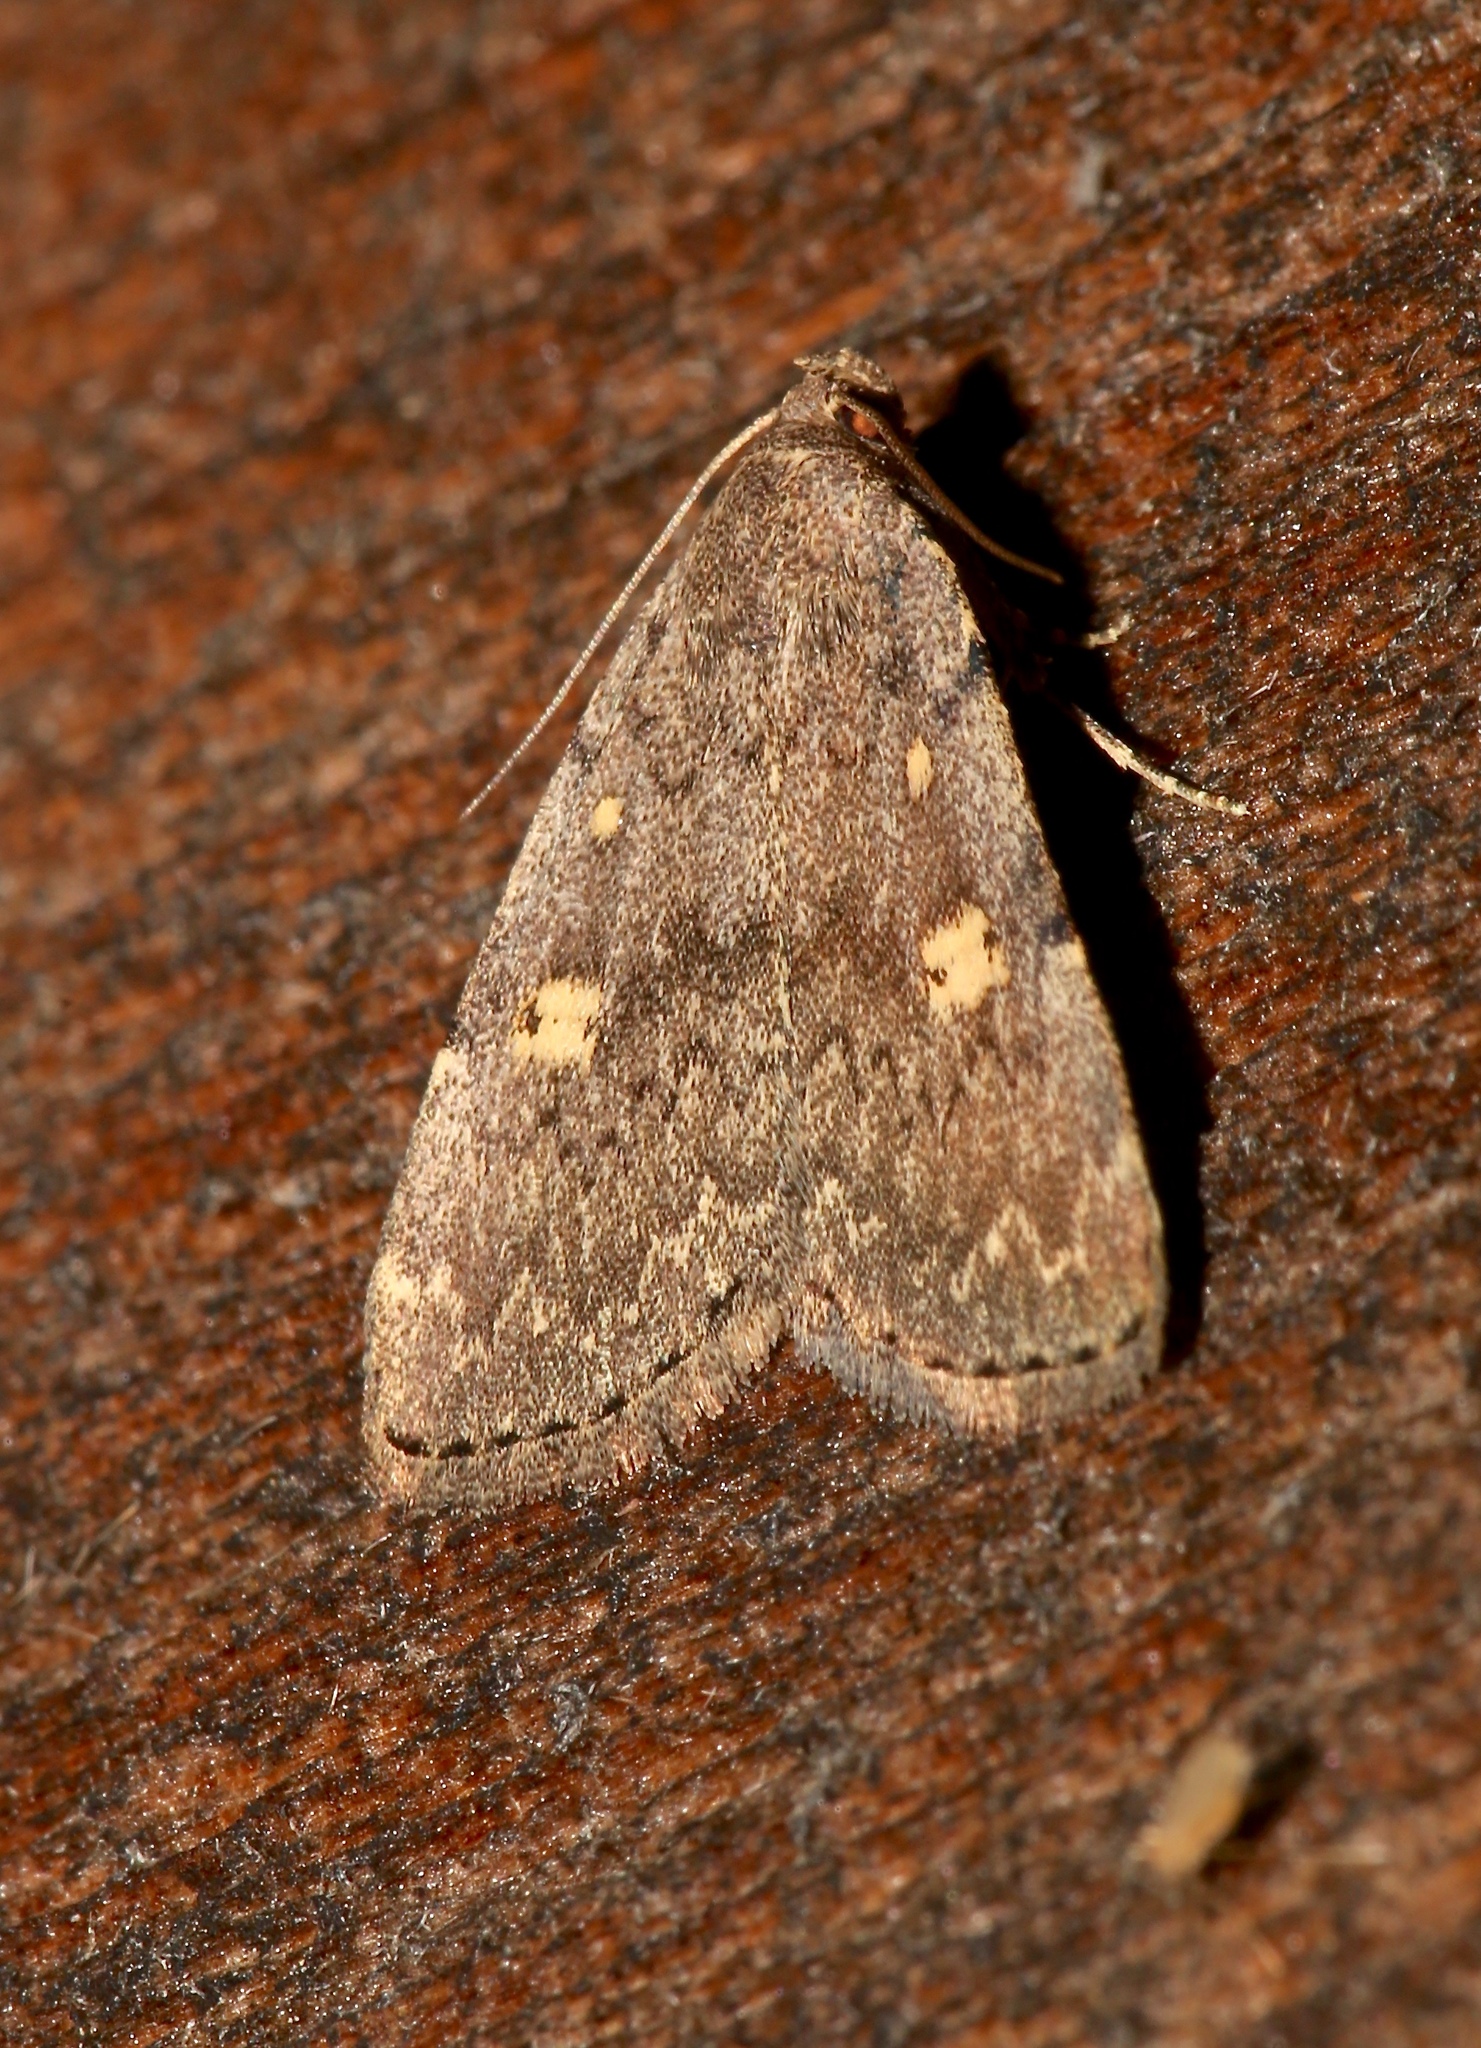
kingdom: Animalia
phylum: Arthropoda
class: Insecta
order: Lepidoptera
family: Erebidae
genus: Idia
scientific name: Idia aemula
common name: Common idia moth
